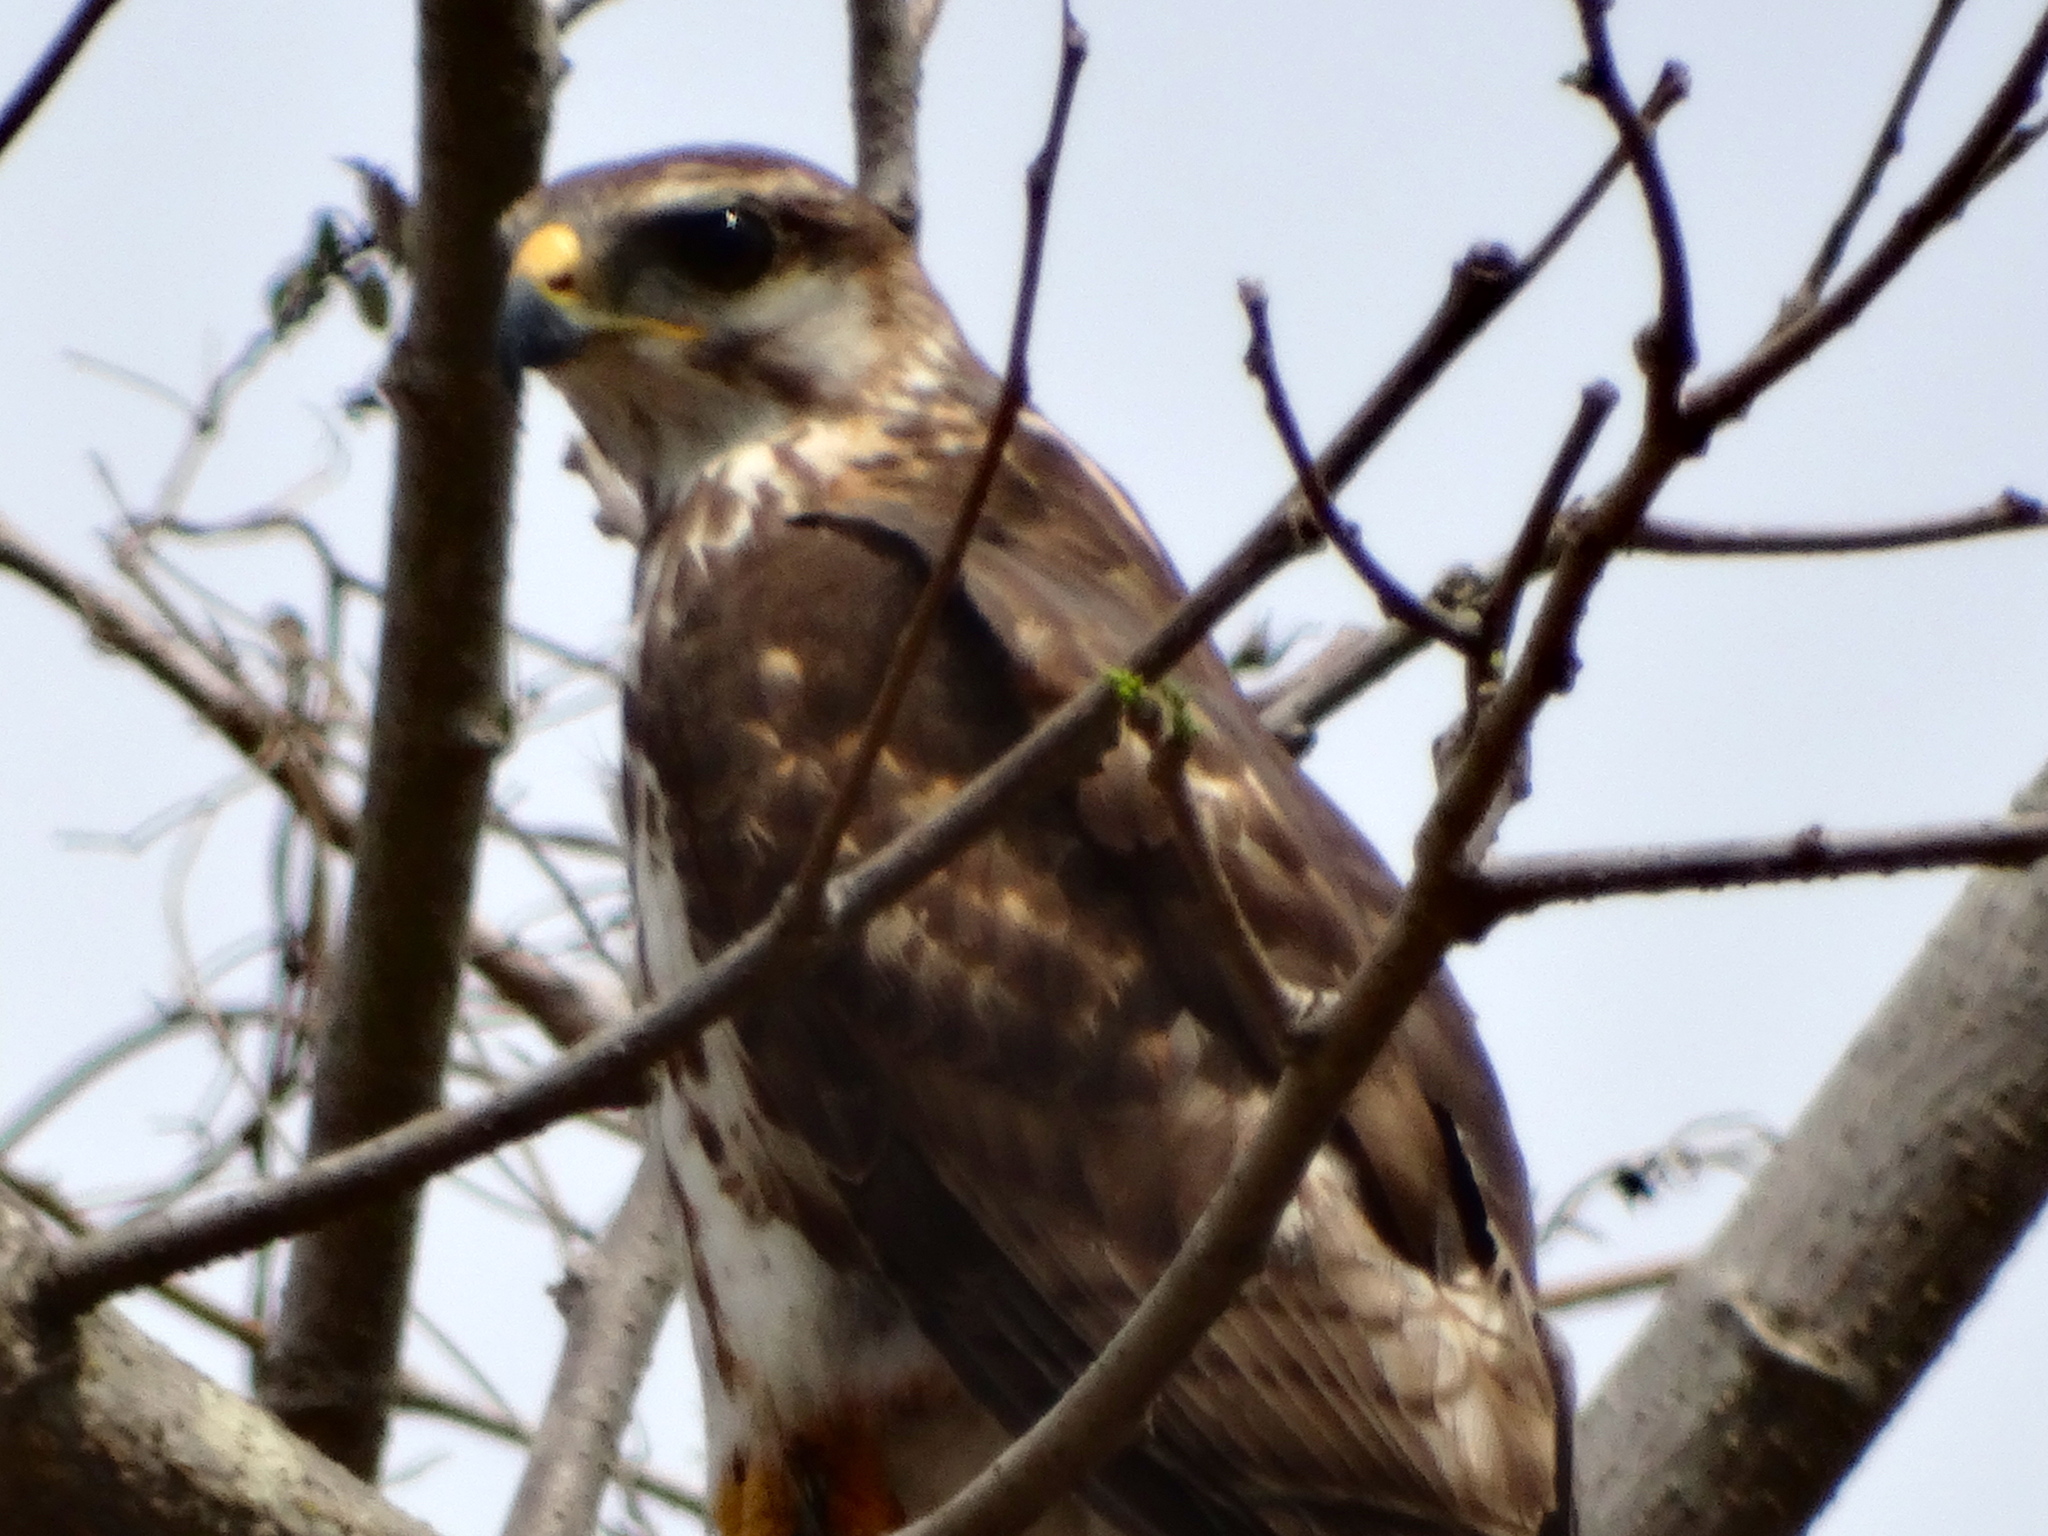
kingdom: Animalia
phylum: Chordata
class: Aves
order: Accipitriformes
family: Accipitridae
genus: Buteo
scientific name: Buteo nitidus
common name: Grey-lined hawk
